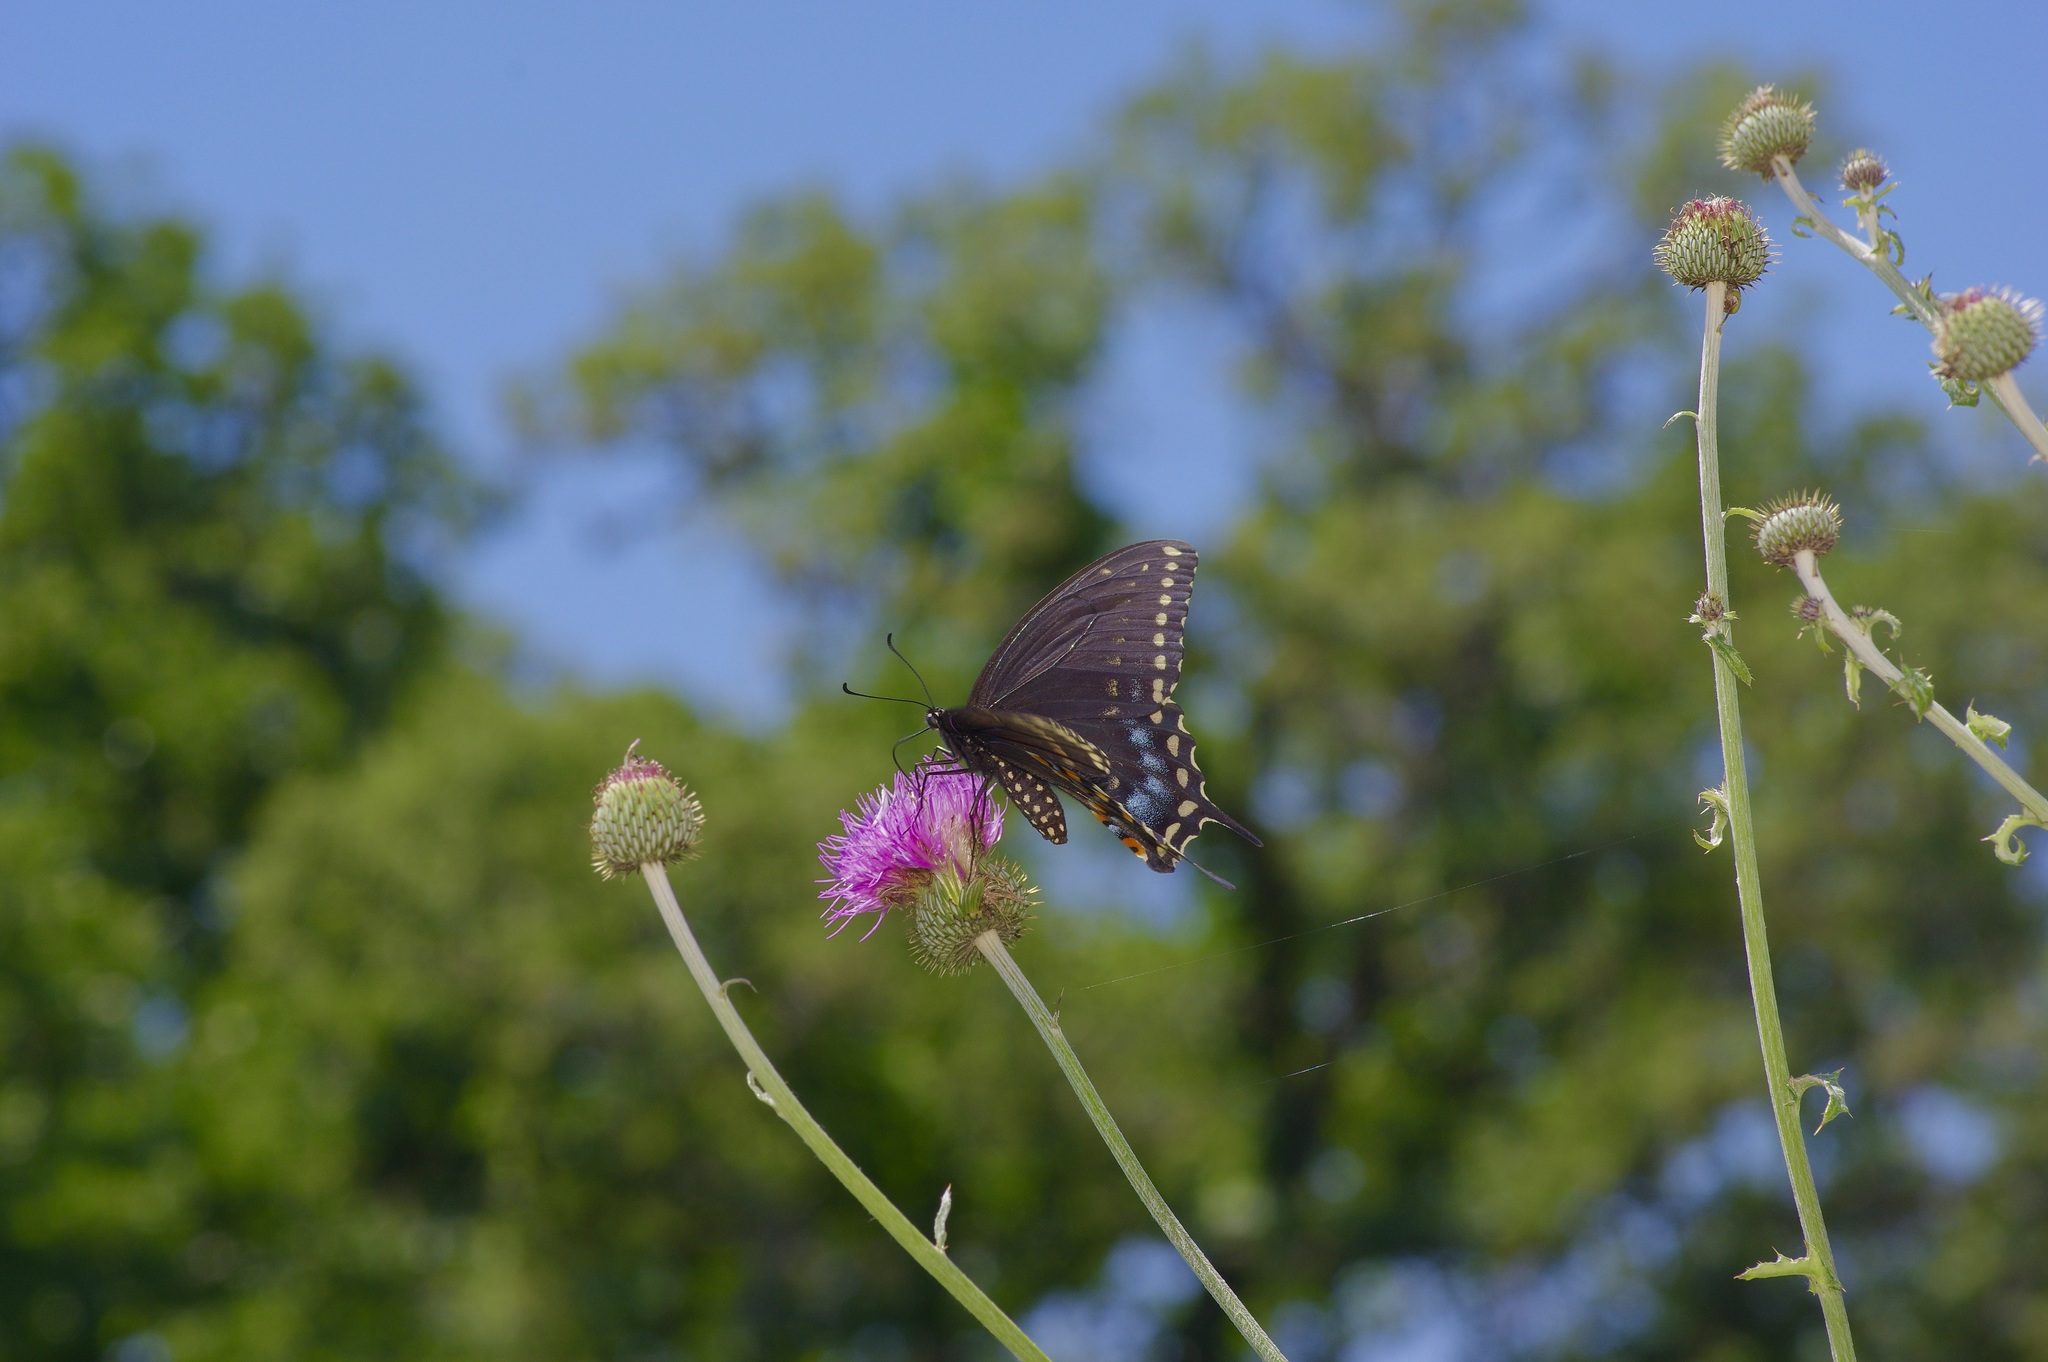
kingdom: Animalia
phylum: Arthropoda
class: Insecta
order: Lepidoptera
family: Papilionidae
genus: Papilio
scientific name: Papilio polyxenes
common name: Black swallowtail
